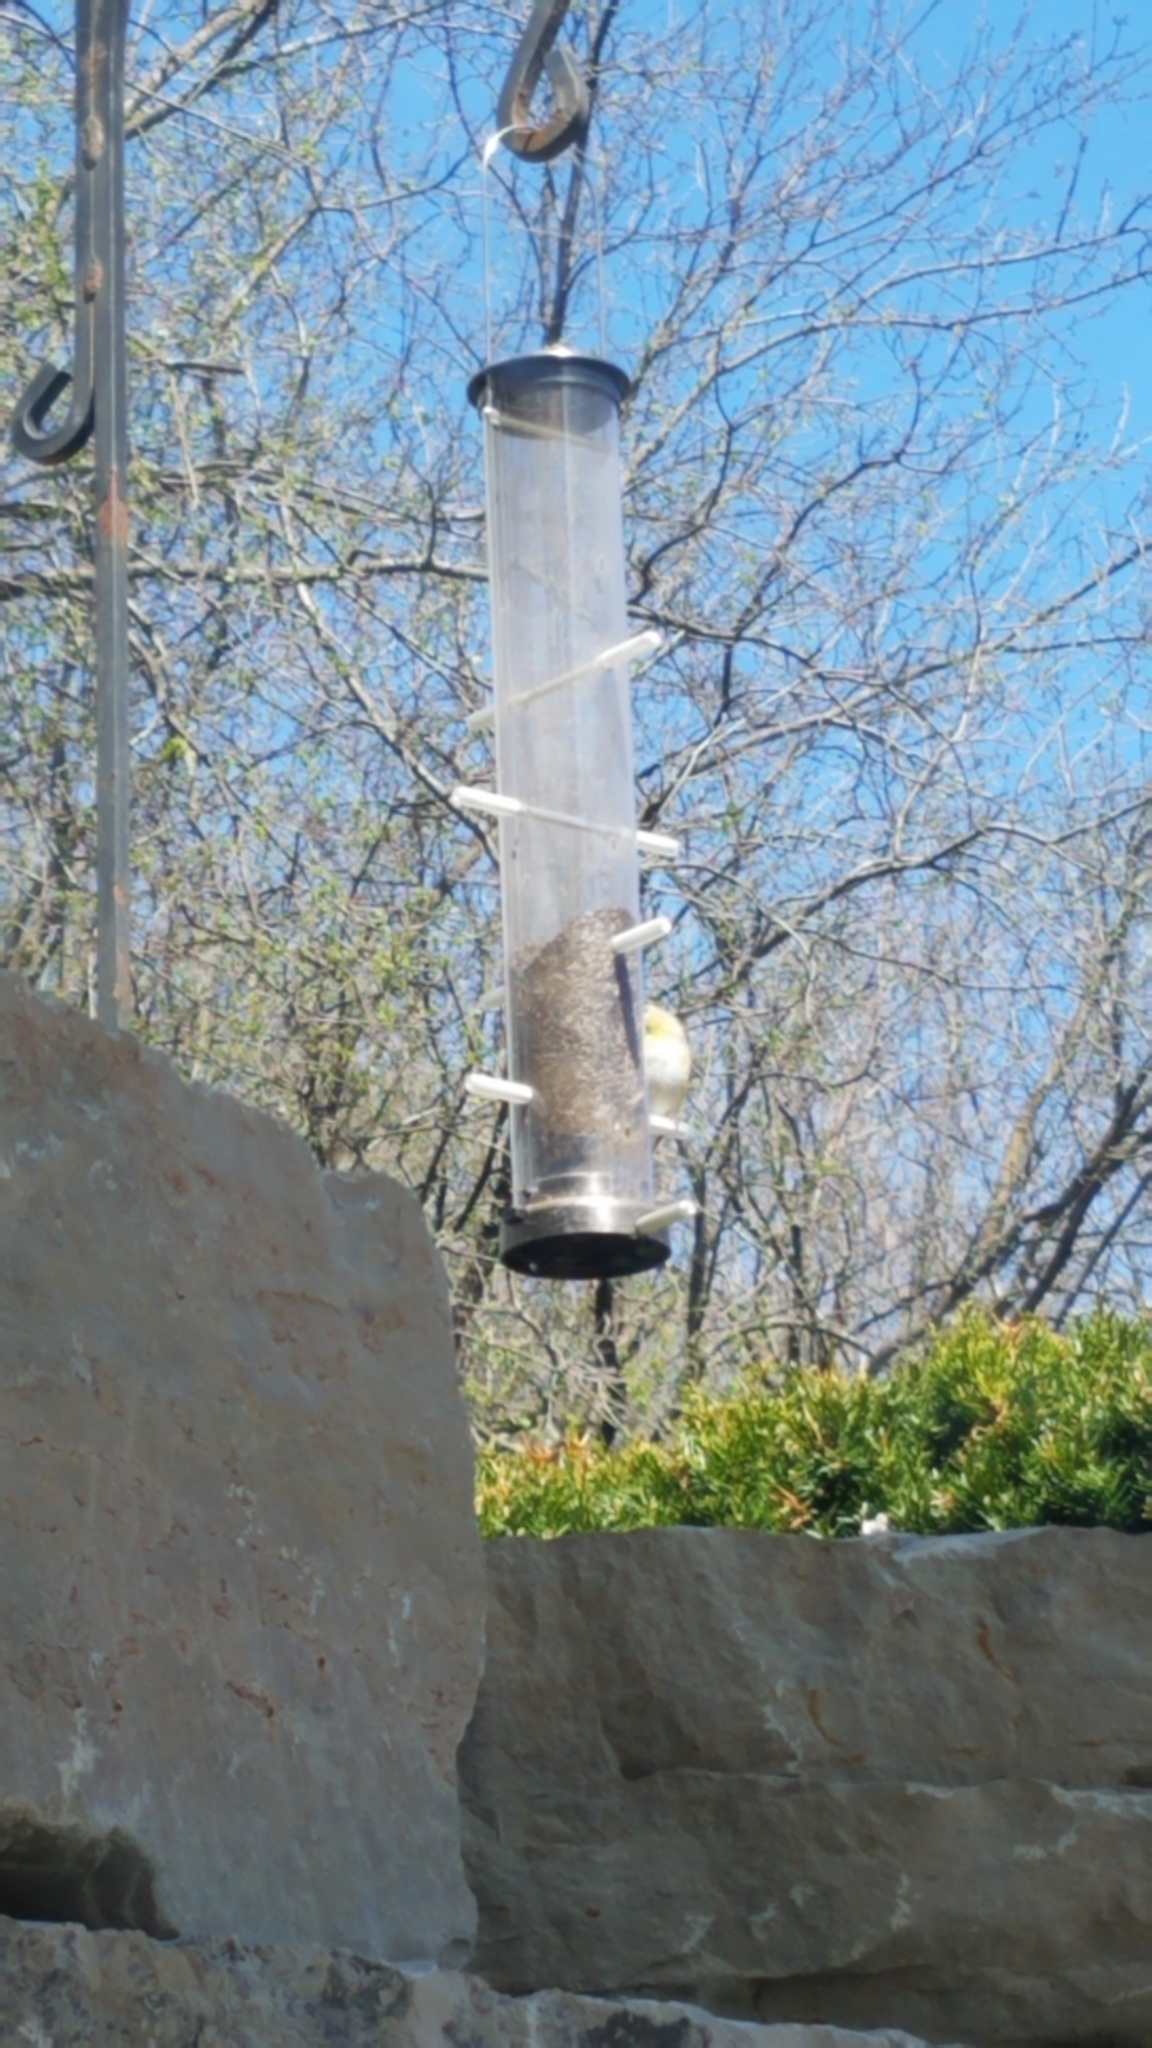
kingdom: Animalia
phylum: Chordata
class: Aves
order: Passeriformes
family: Fringillidae
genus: Spinus
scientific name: Spinus tristis
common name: American goldfinch
